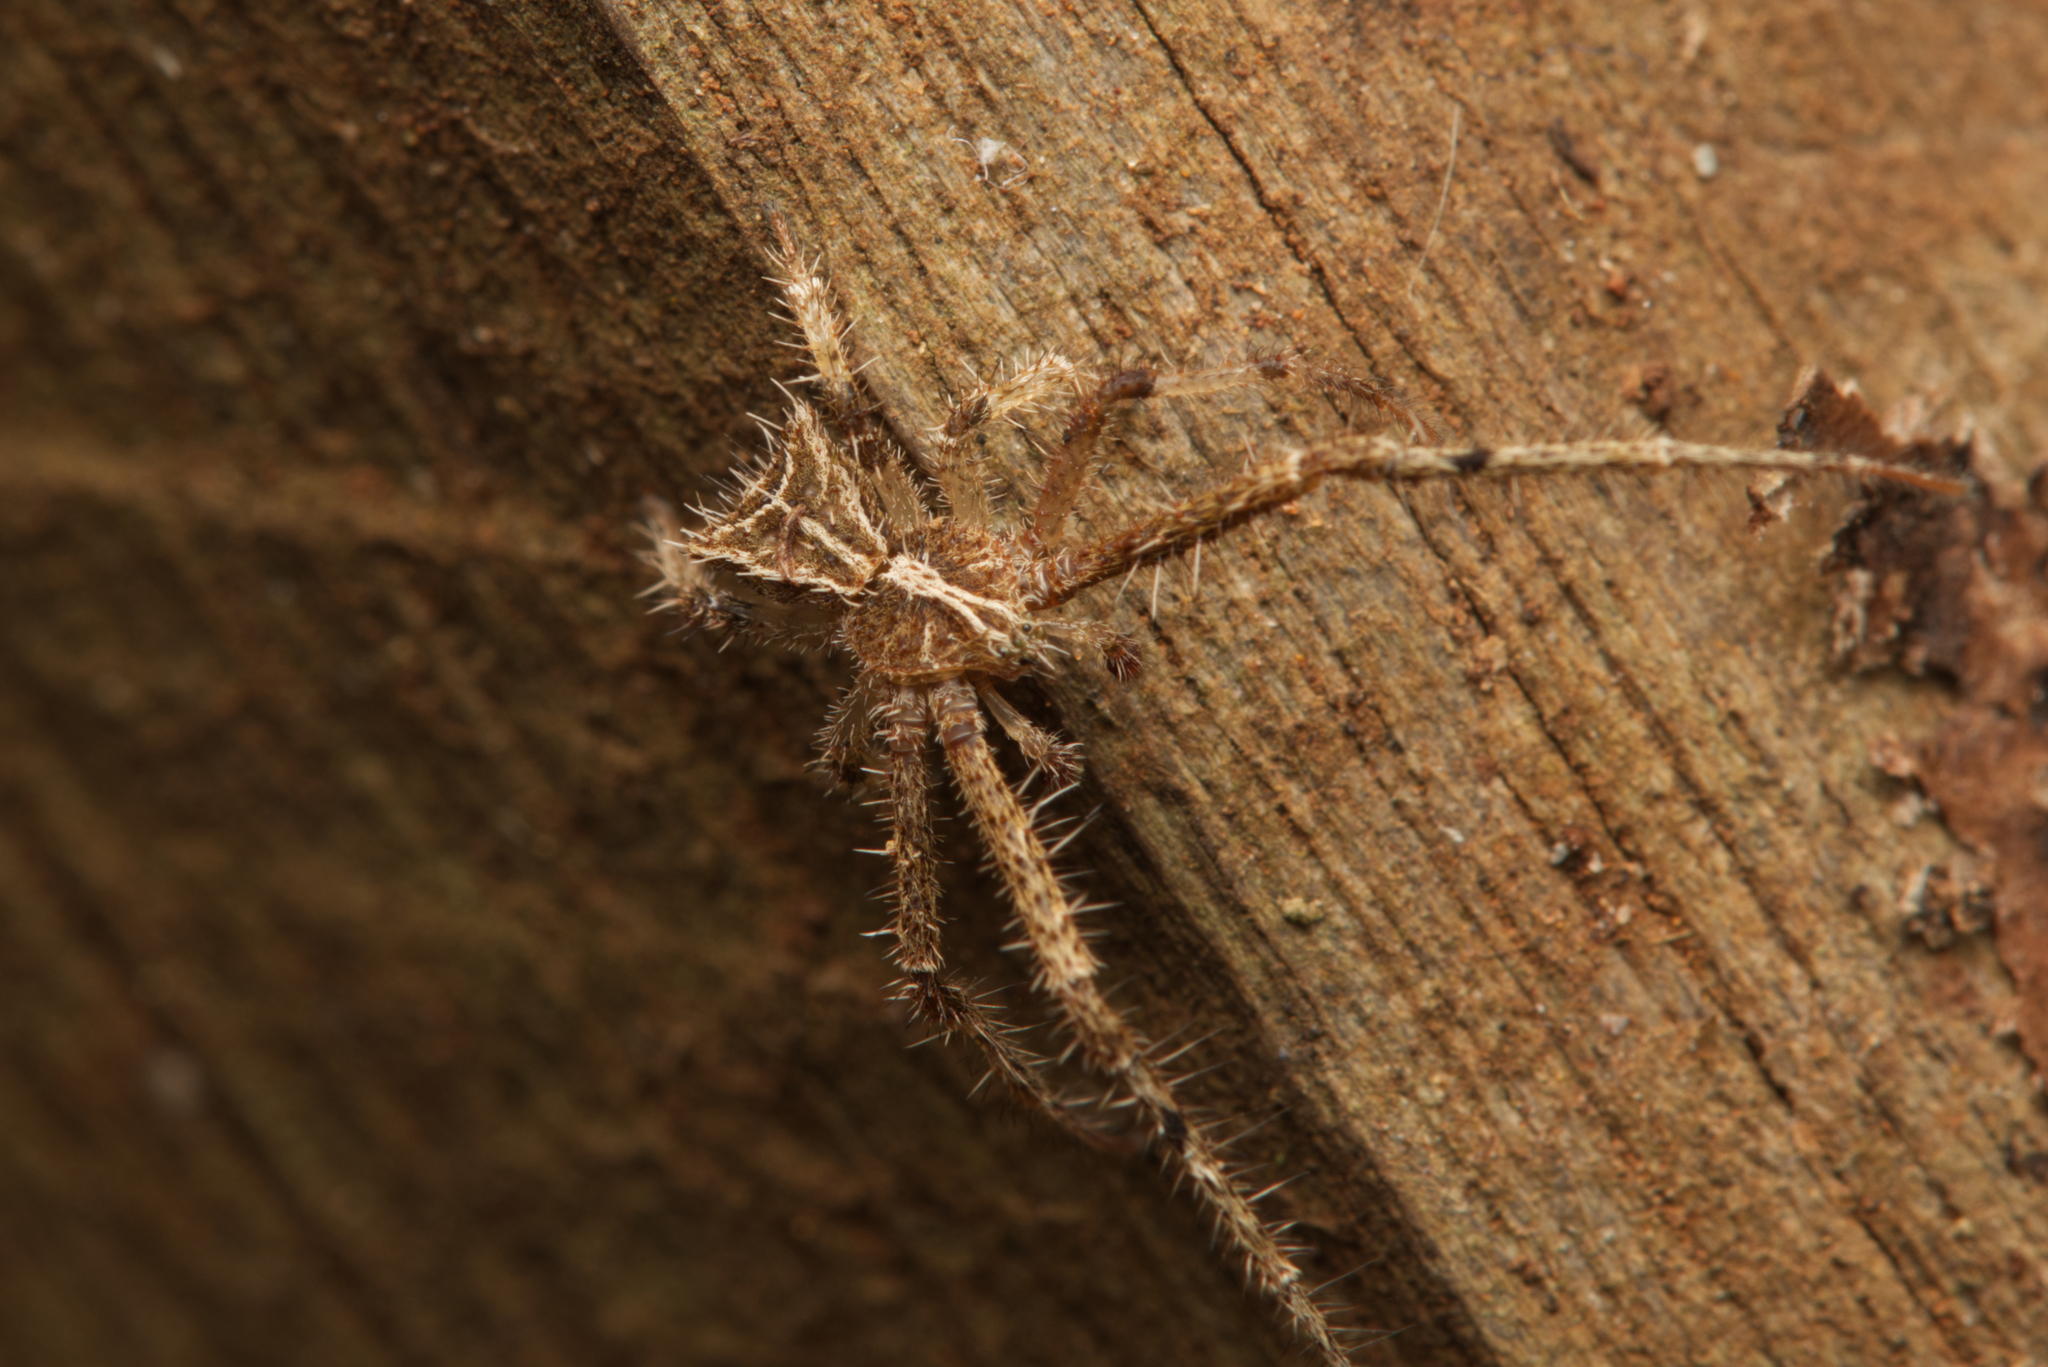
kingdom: Animalia
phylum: Arthropoda
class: Arachnida
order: Araneae
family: Thomisidae
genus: Sidymella
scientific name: Sidymella hirsuta
